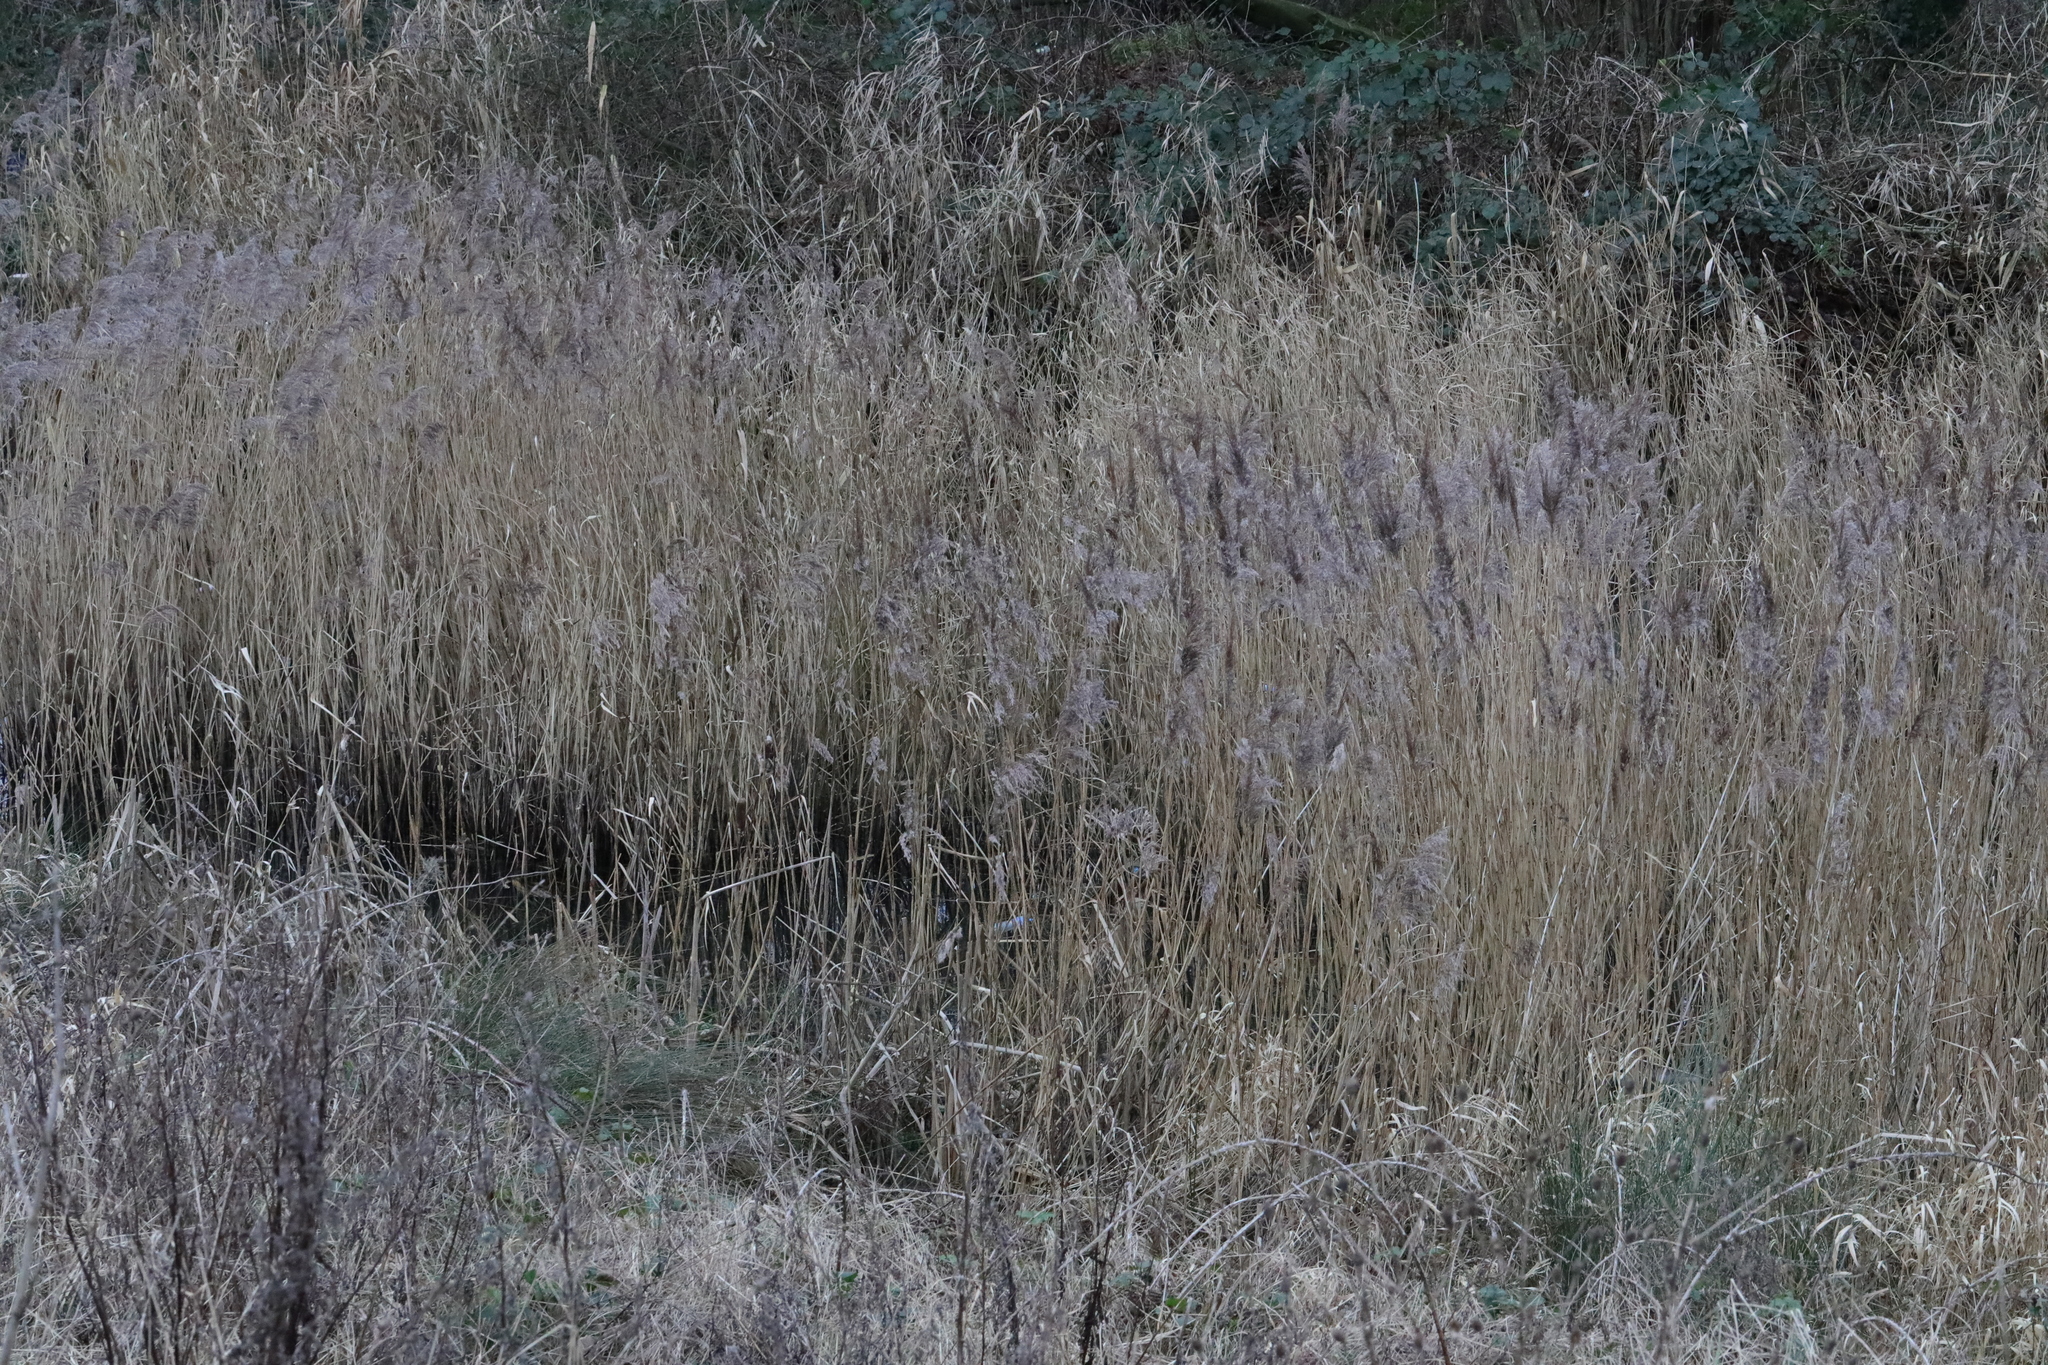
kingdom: Plantae
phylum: Tracheophyta
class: Liliopsida
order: Poales
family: Poaceae
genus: Phragmites
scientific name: Phragmites australis
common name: Common reed
